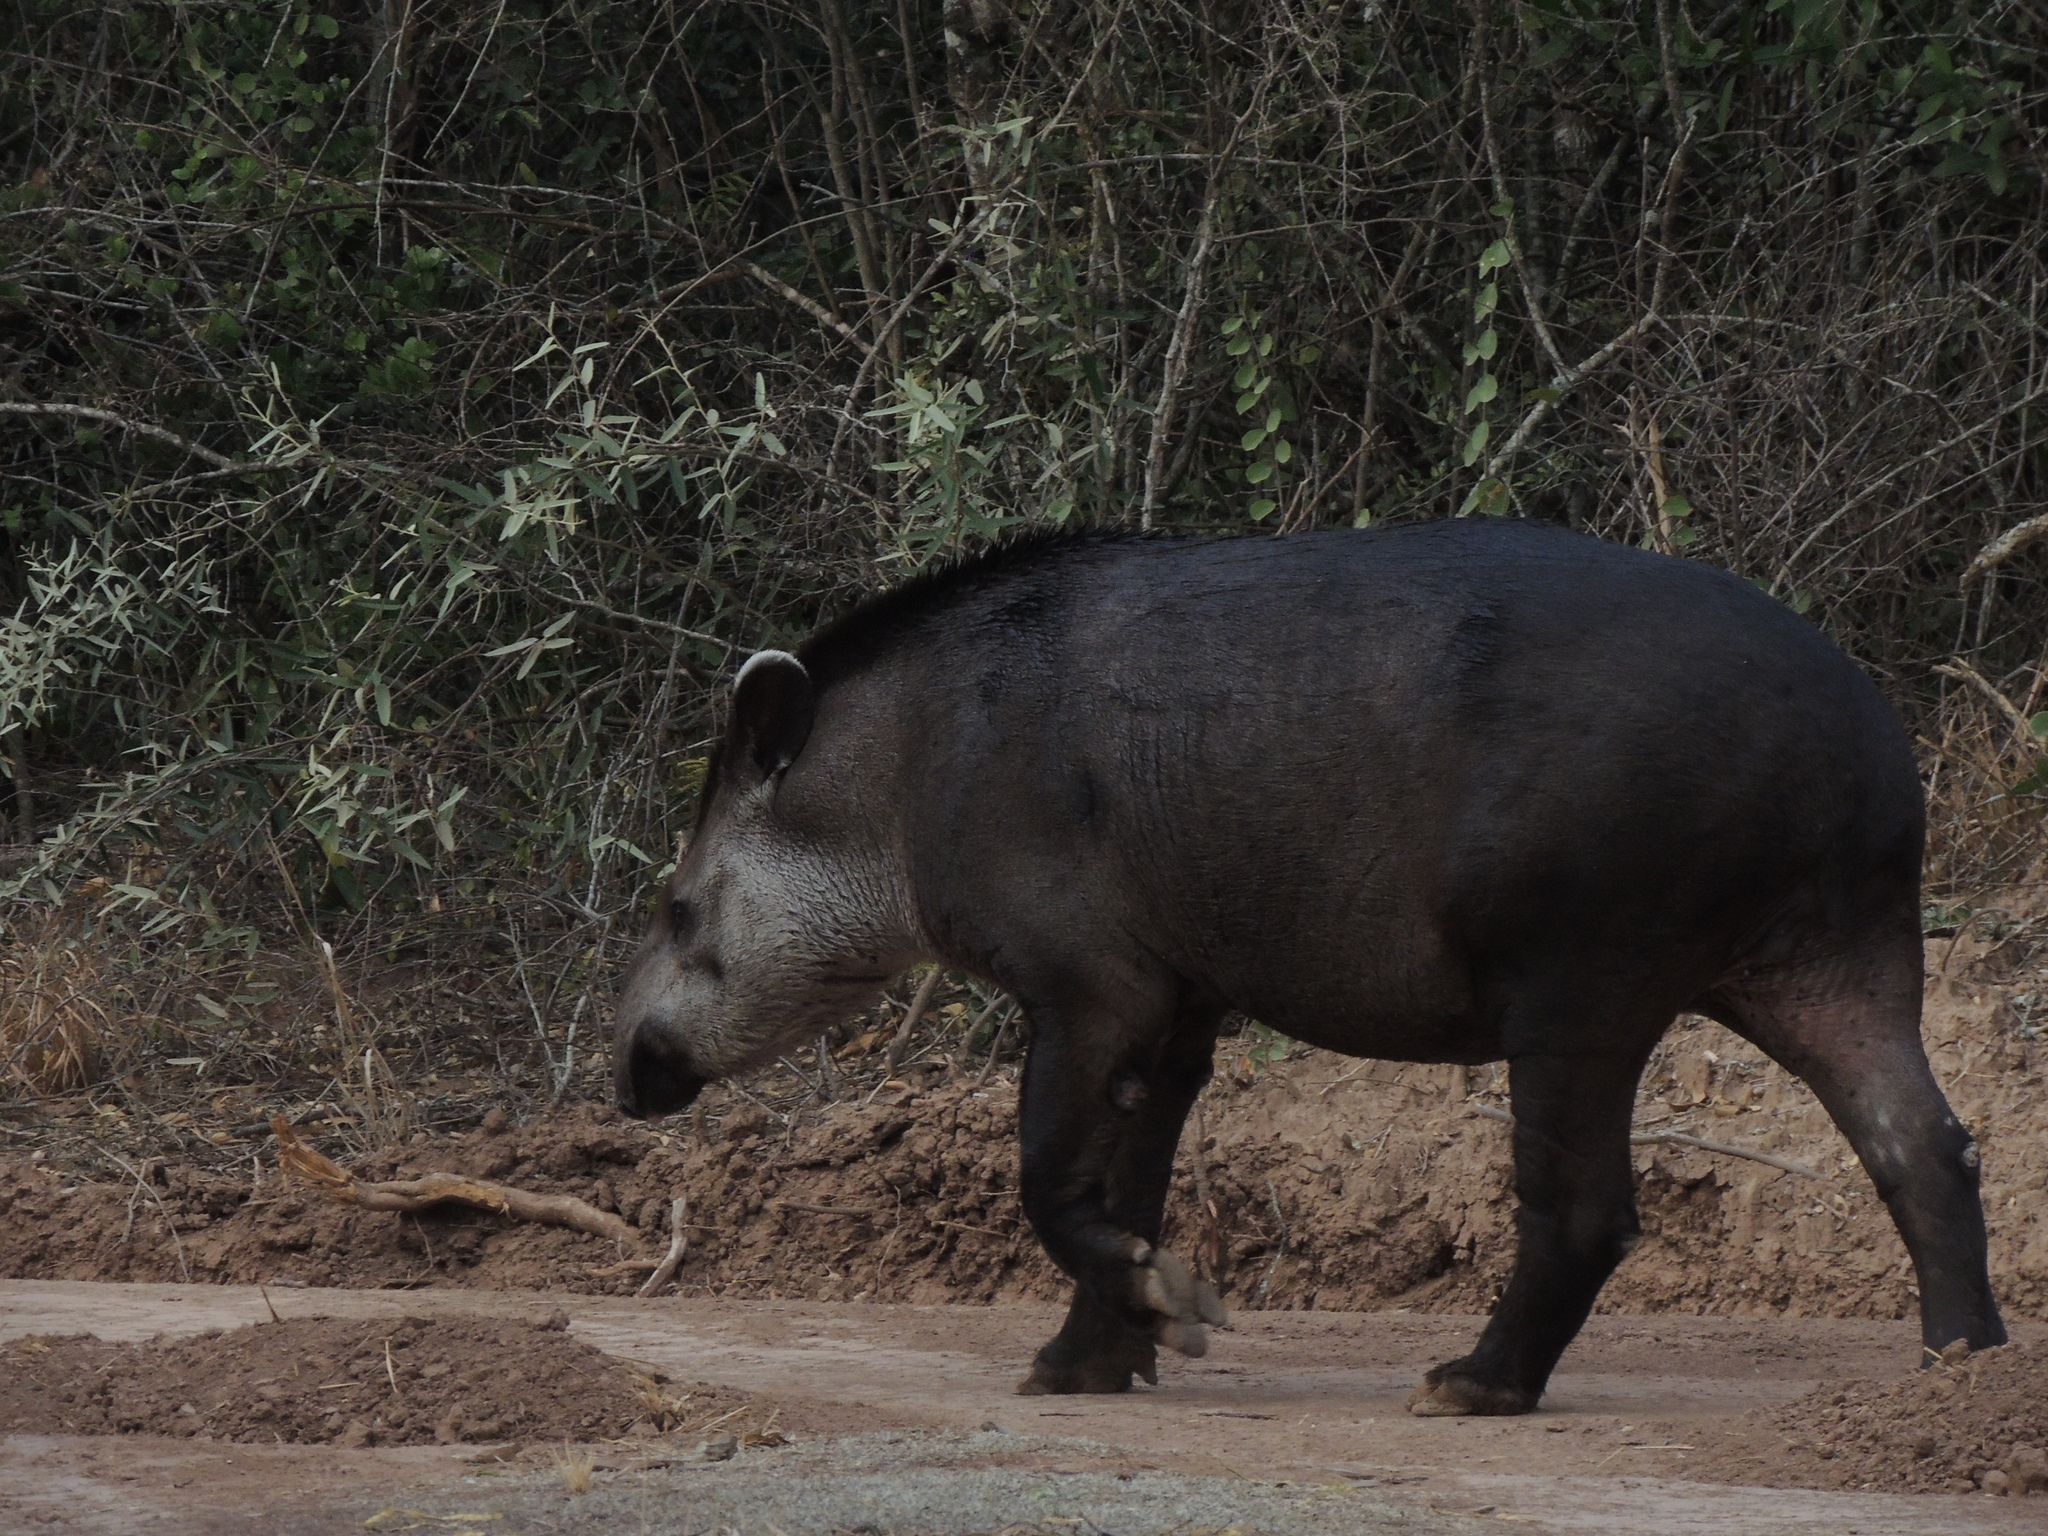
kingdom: Animalia
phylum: Chordata
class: Mammalia
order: Perissodactyla
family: Tapiridae
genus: Tapirus
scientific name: Tapirus terrestris
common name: Brazilian tapir
